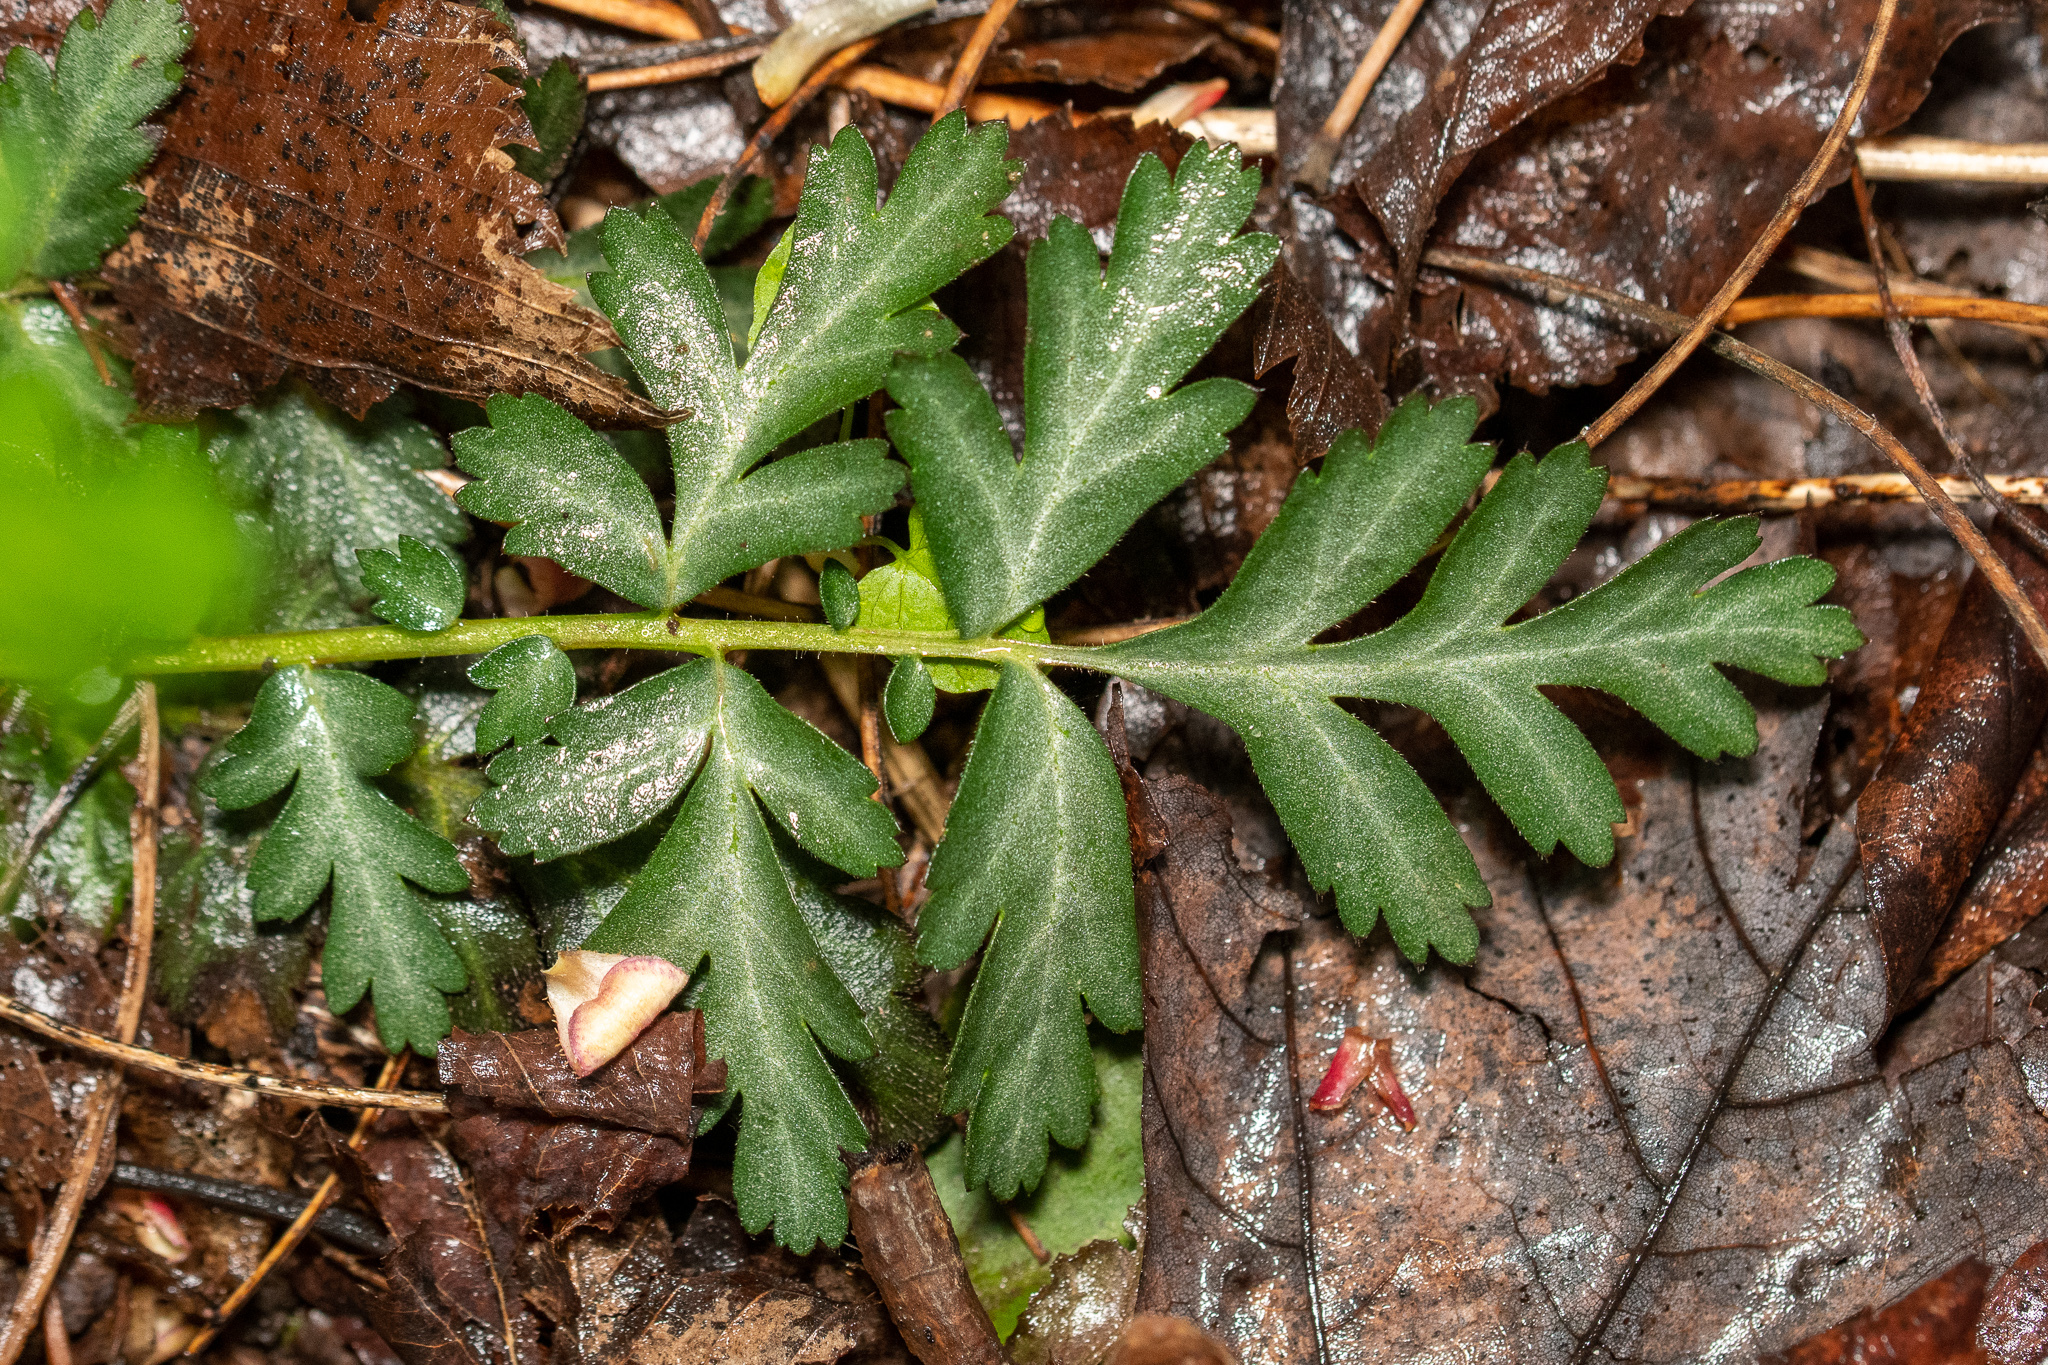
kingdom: Plantae
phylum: Tracheophyta
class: Magnoliopsida
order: Rosales
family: Rosaceae
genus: Geum
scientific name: Geum canadense
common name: White avens
